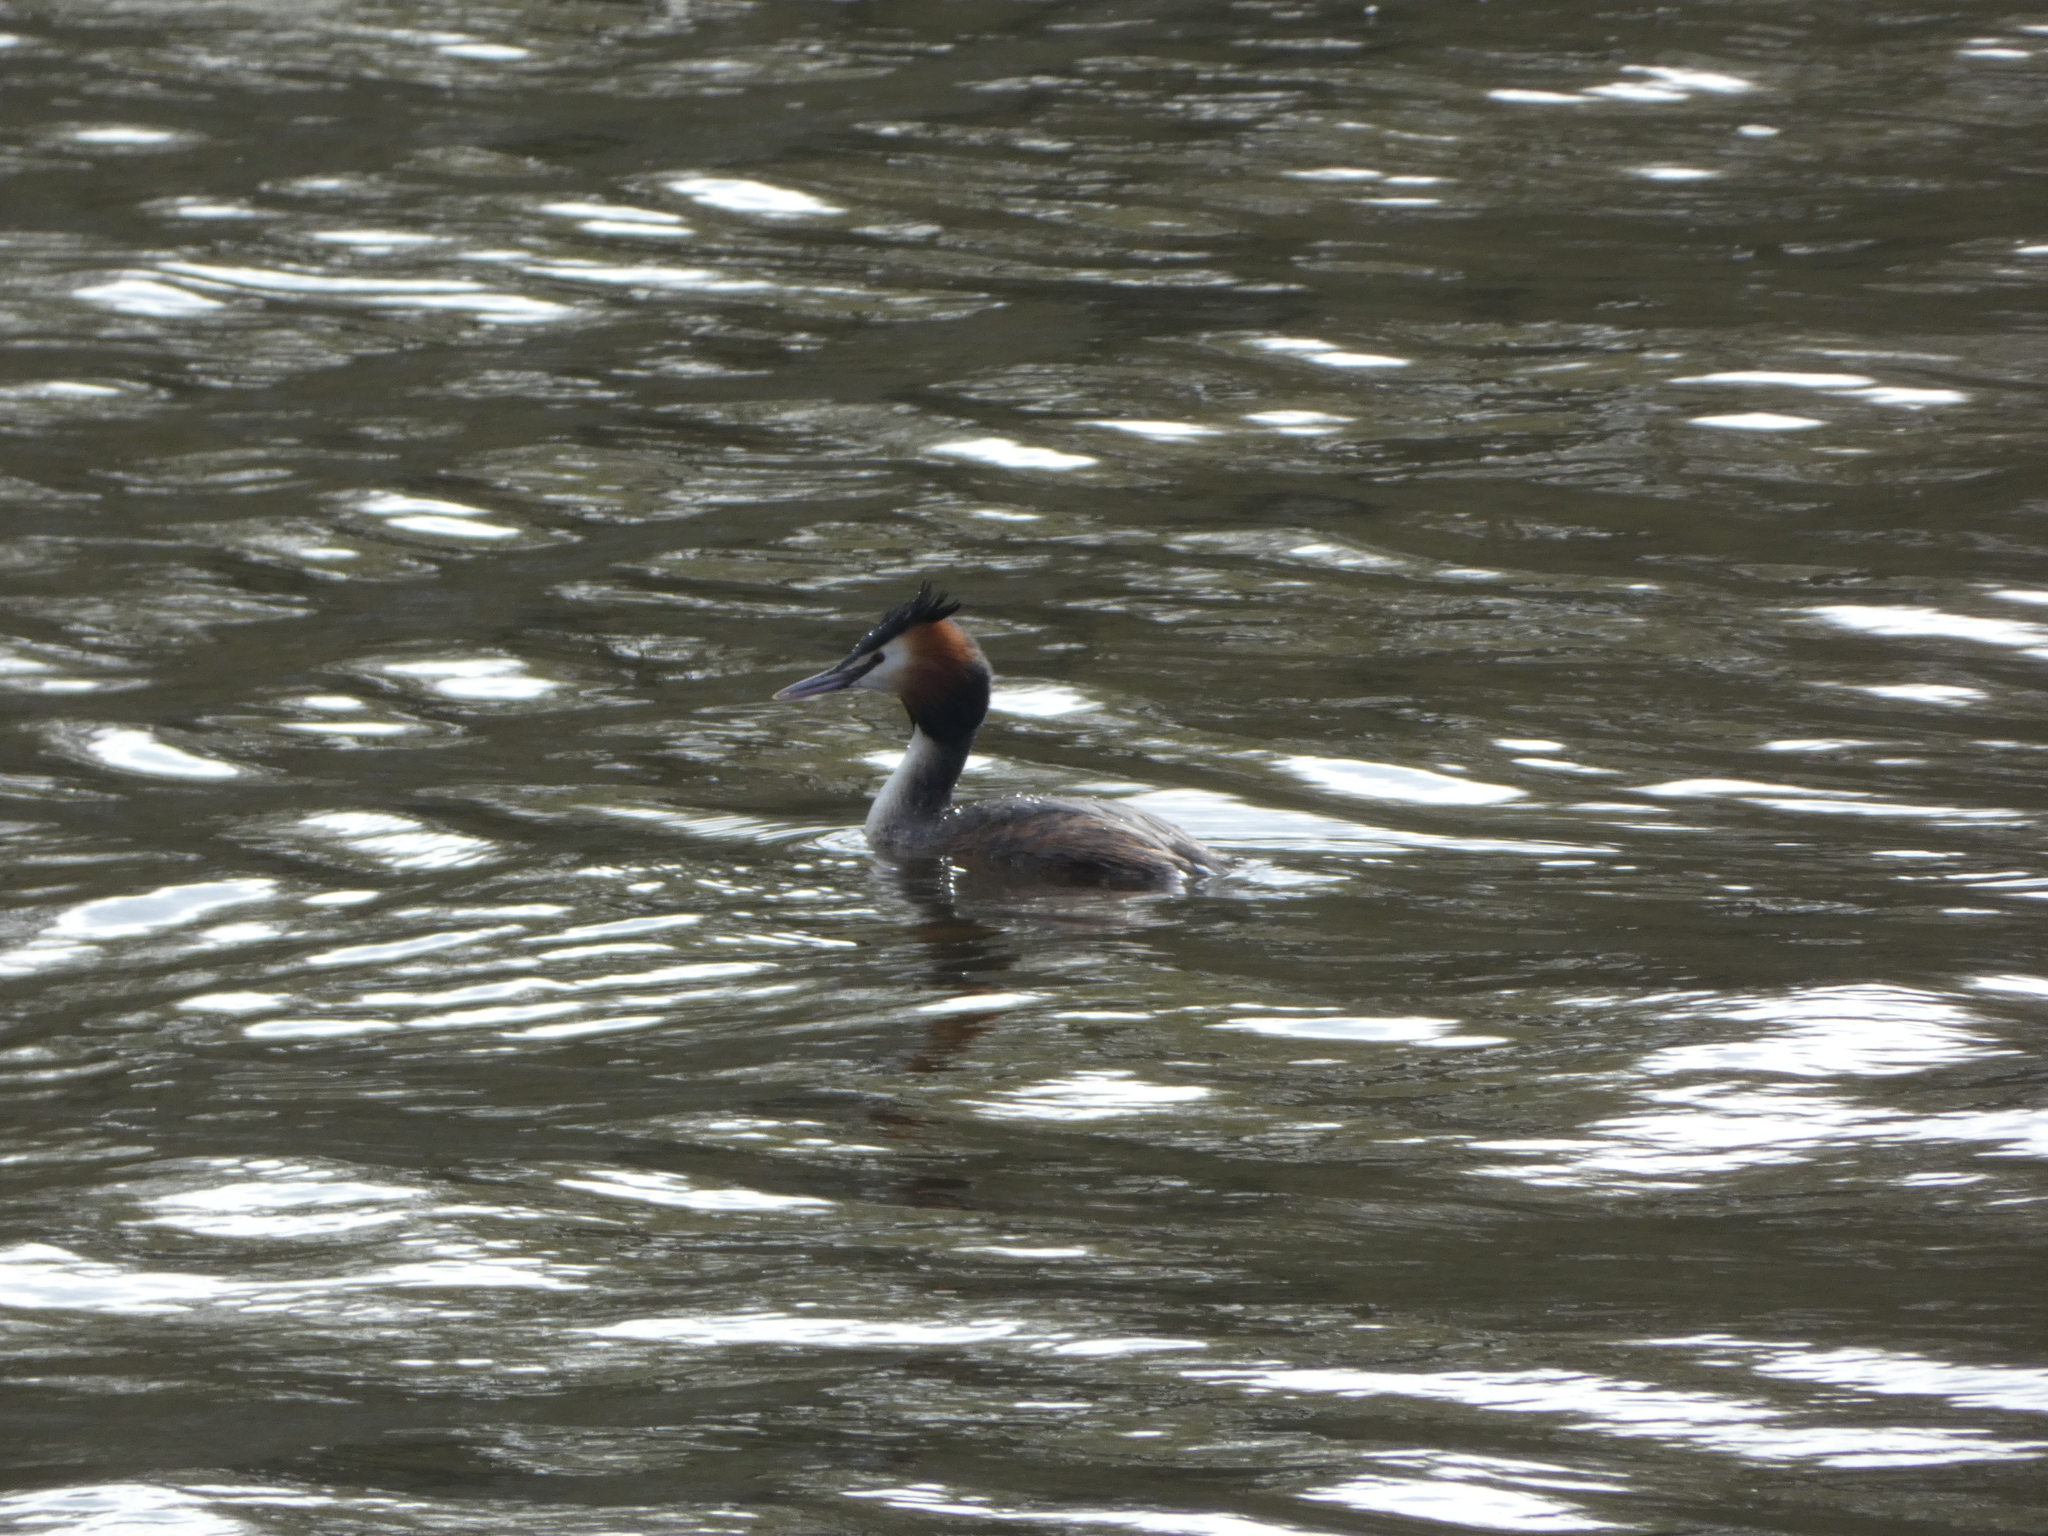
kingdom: Animalia
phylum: Chordata
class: Aves
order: Podicipediformes
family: Podicipedidae
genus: Podiceps
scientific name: Podiceps cristatus
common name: Great crested grebe
